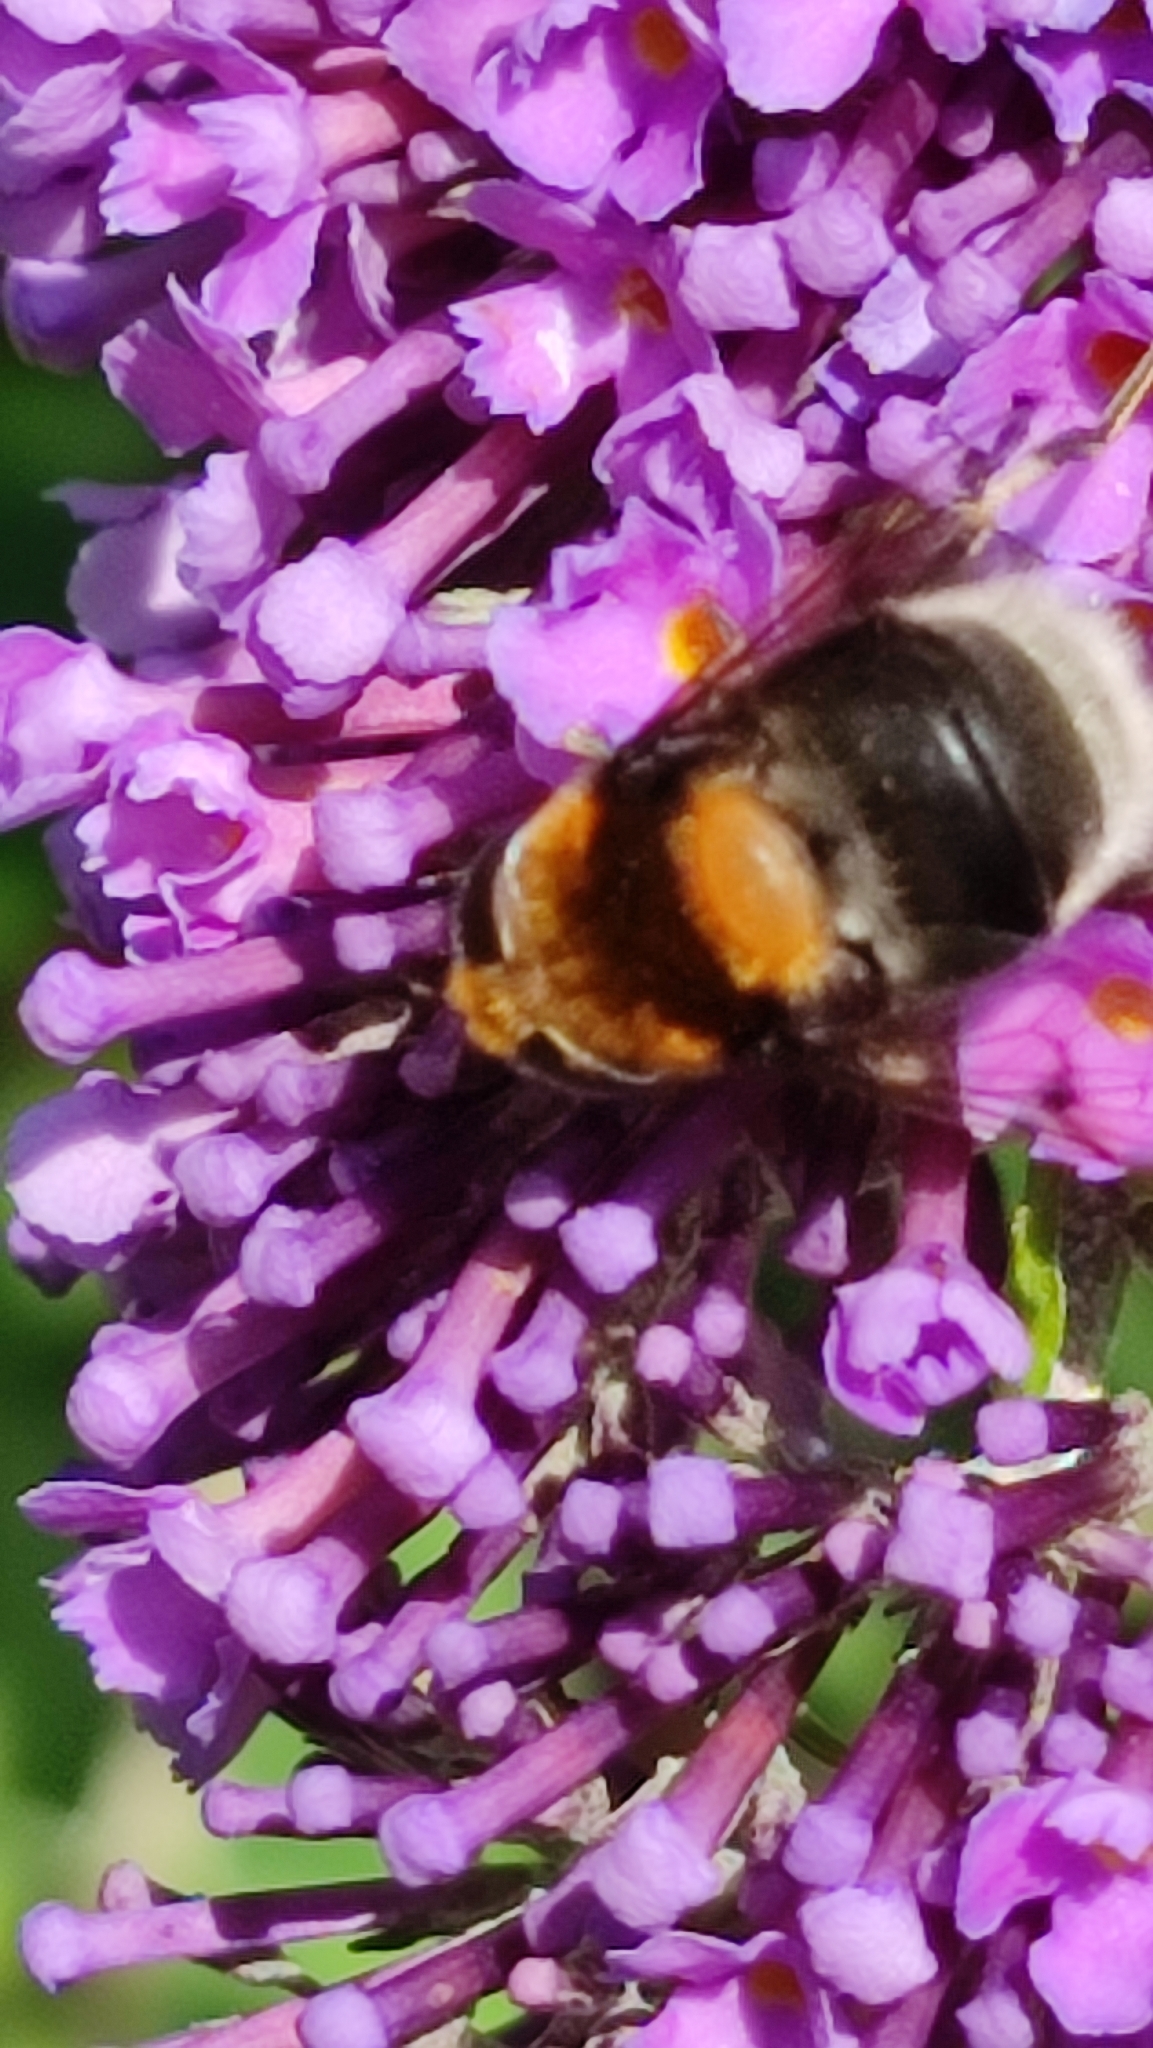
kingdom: Animalia
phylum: Arthropoda
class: Insecta
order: Diptera
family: Syrphidae
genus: Eristalis
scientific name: Eristalis intricaria
